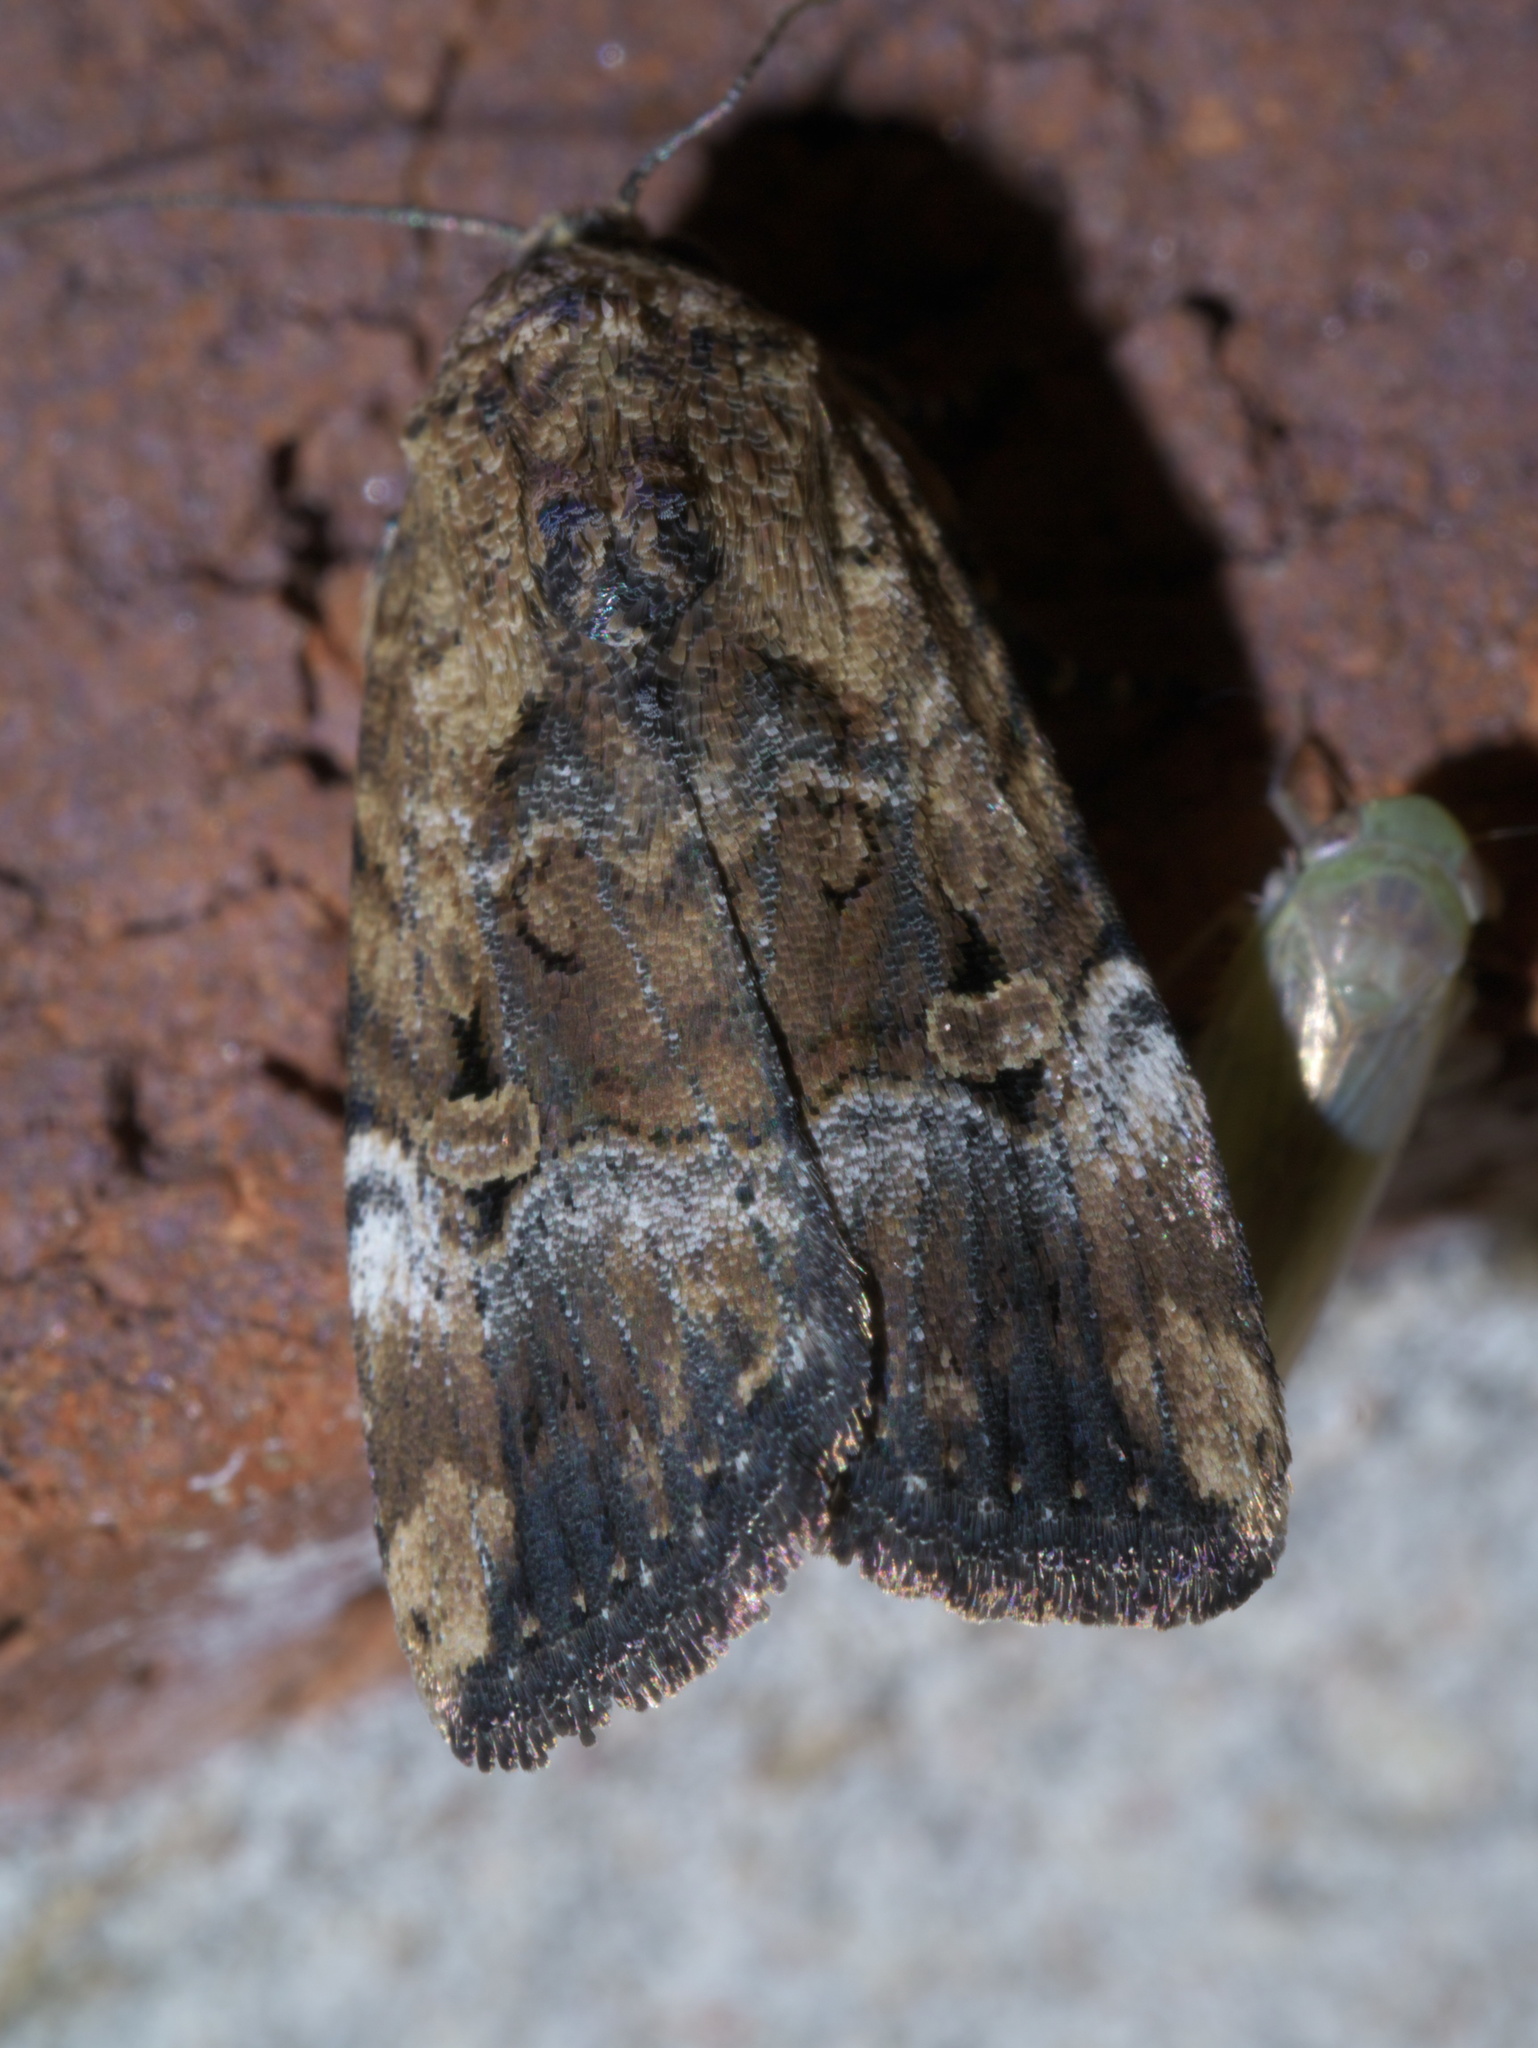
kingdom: Animalia
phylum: Arthropoda
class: Insecta
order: Lepidoptera
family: Noctuidae
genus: Elaphria
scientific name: Elaphria chalcedonia
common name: Chalcedony midget
